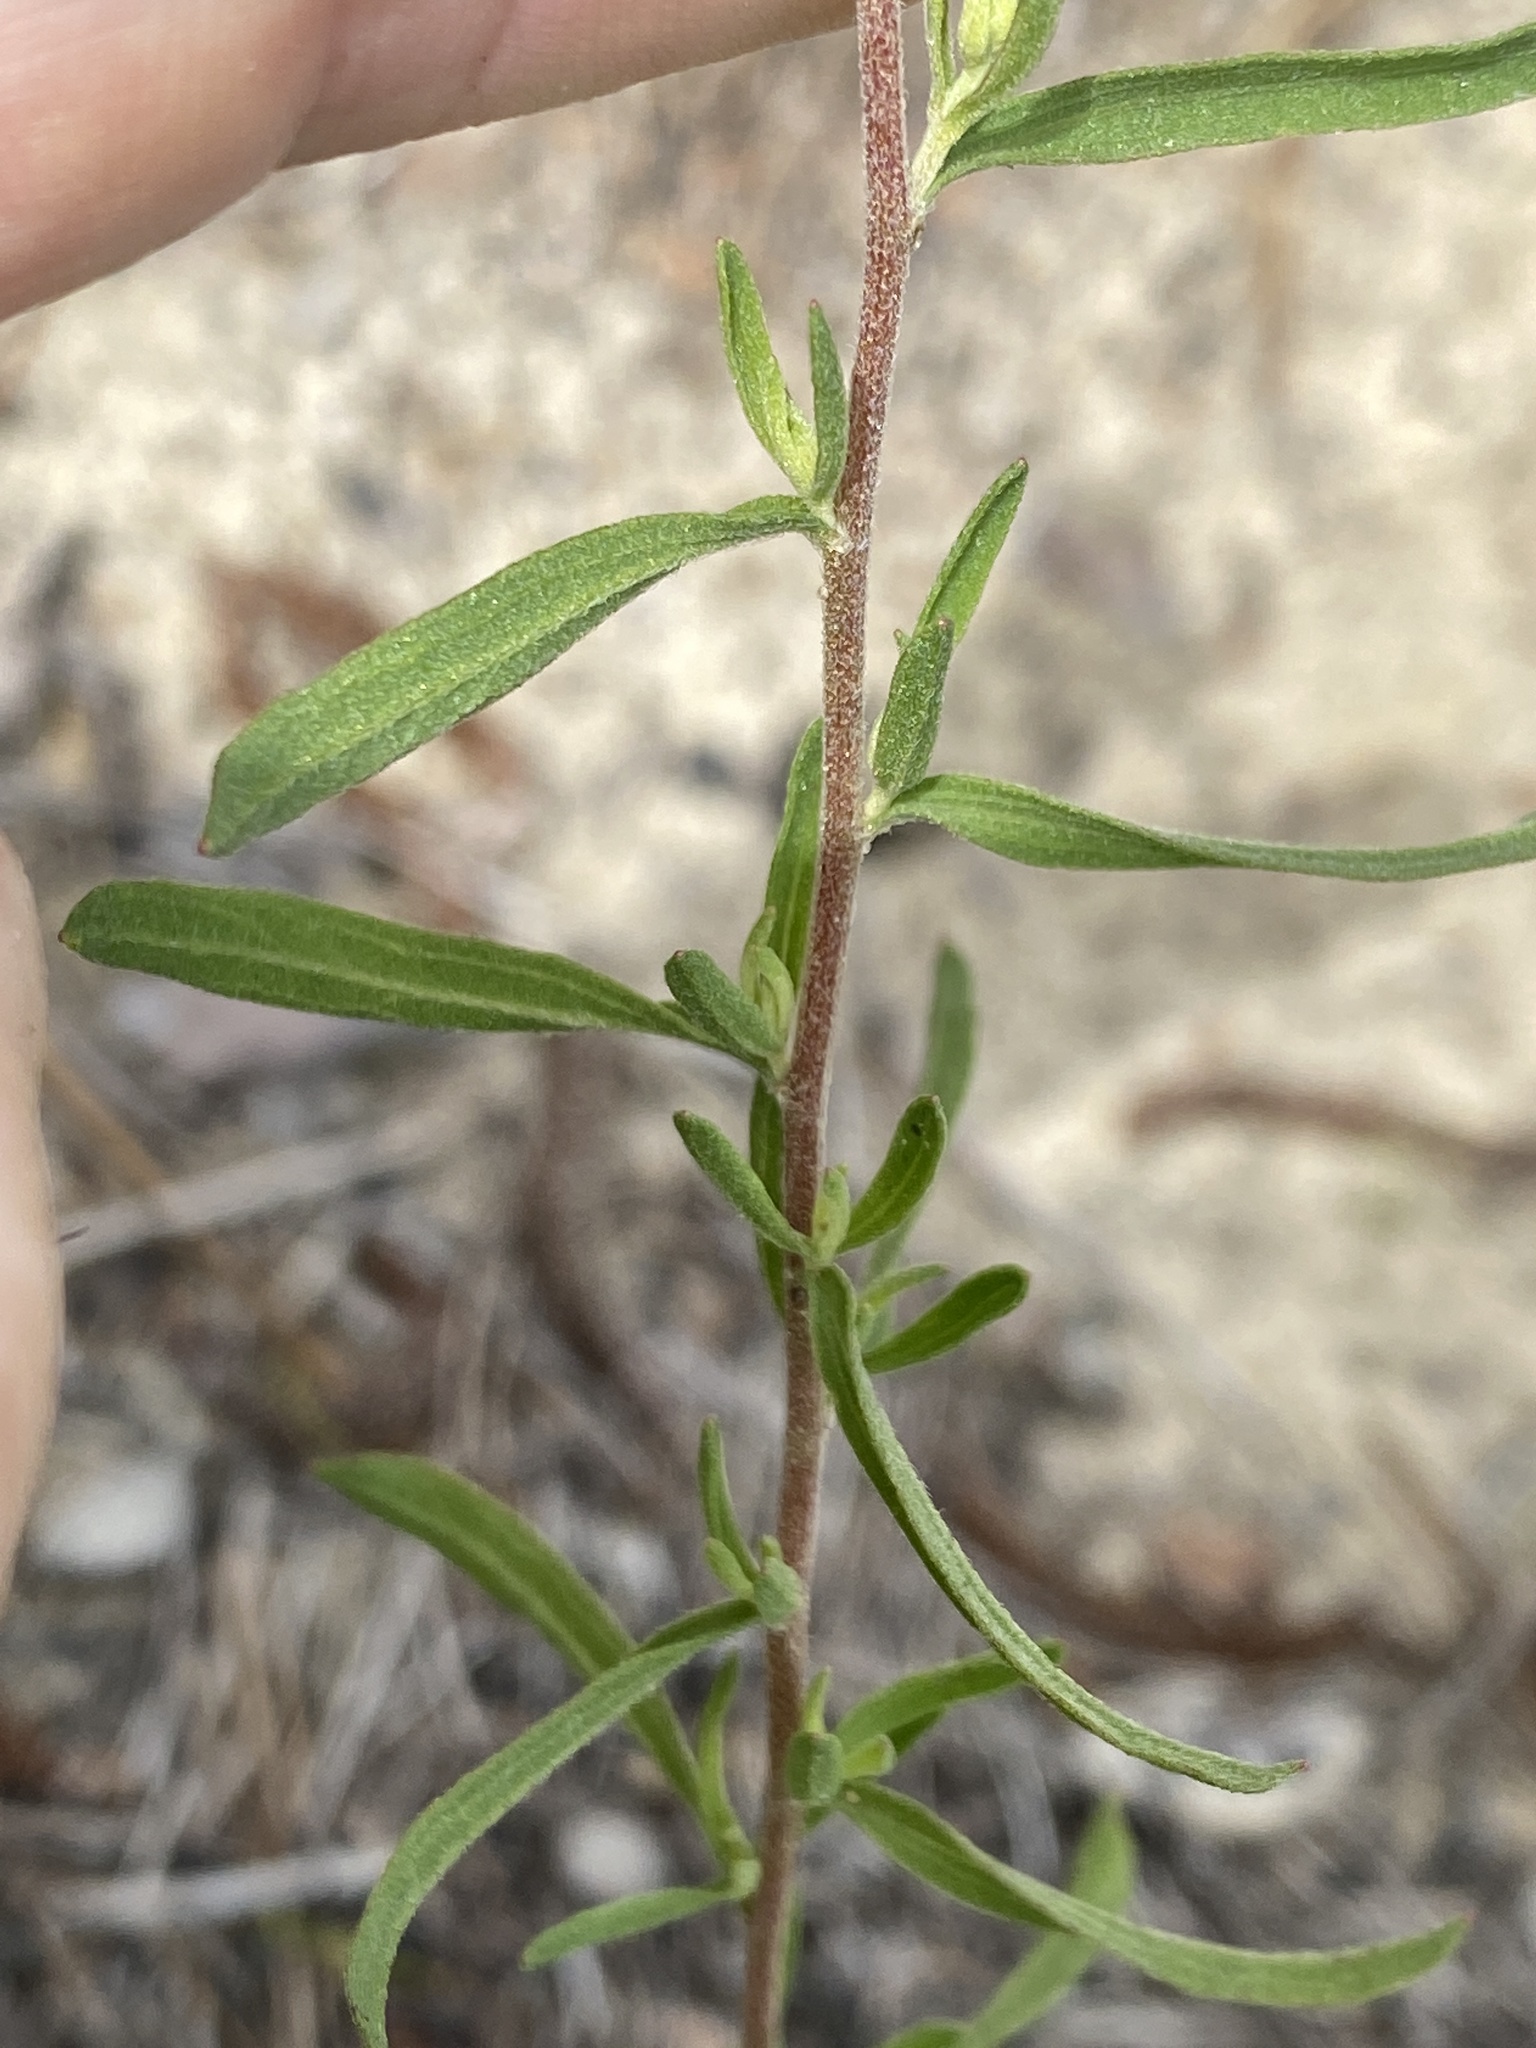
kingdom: Plantae
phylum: Tracheophyta
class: Magnoliopsida
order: Asterales
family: Asteraceae
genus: Eupatorium
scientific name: Eupatorium linearifolium
